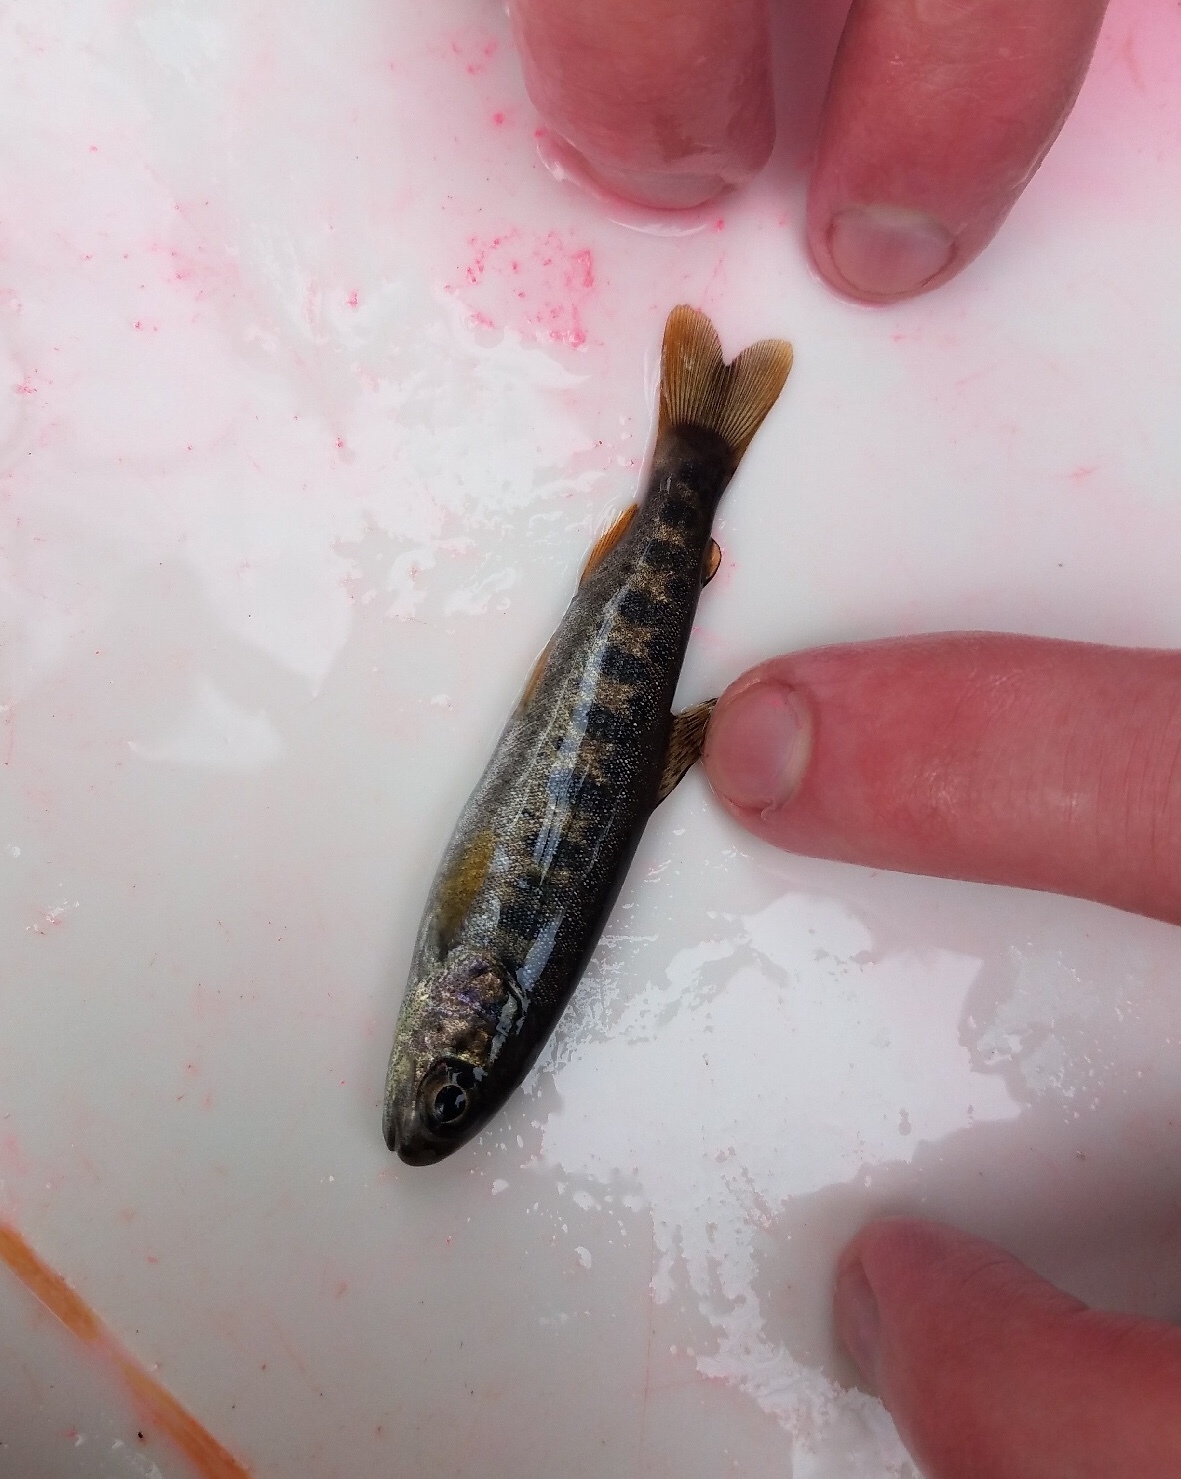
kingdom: Animalia
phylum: Chordata
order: Salmoniformes
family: Salmonidae
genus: Oncorhynchus
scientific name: Oncorhynchus mykiss
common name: Rainbow trout
